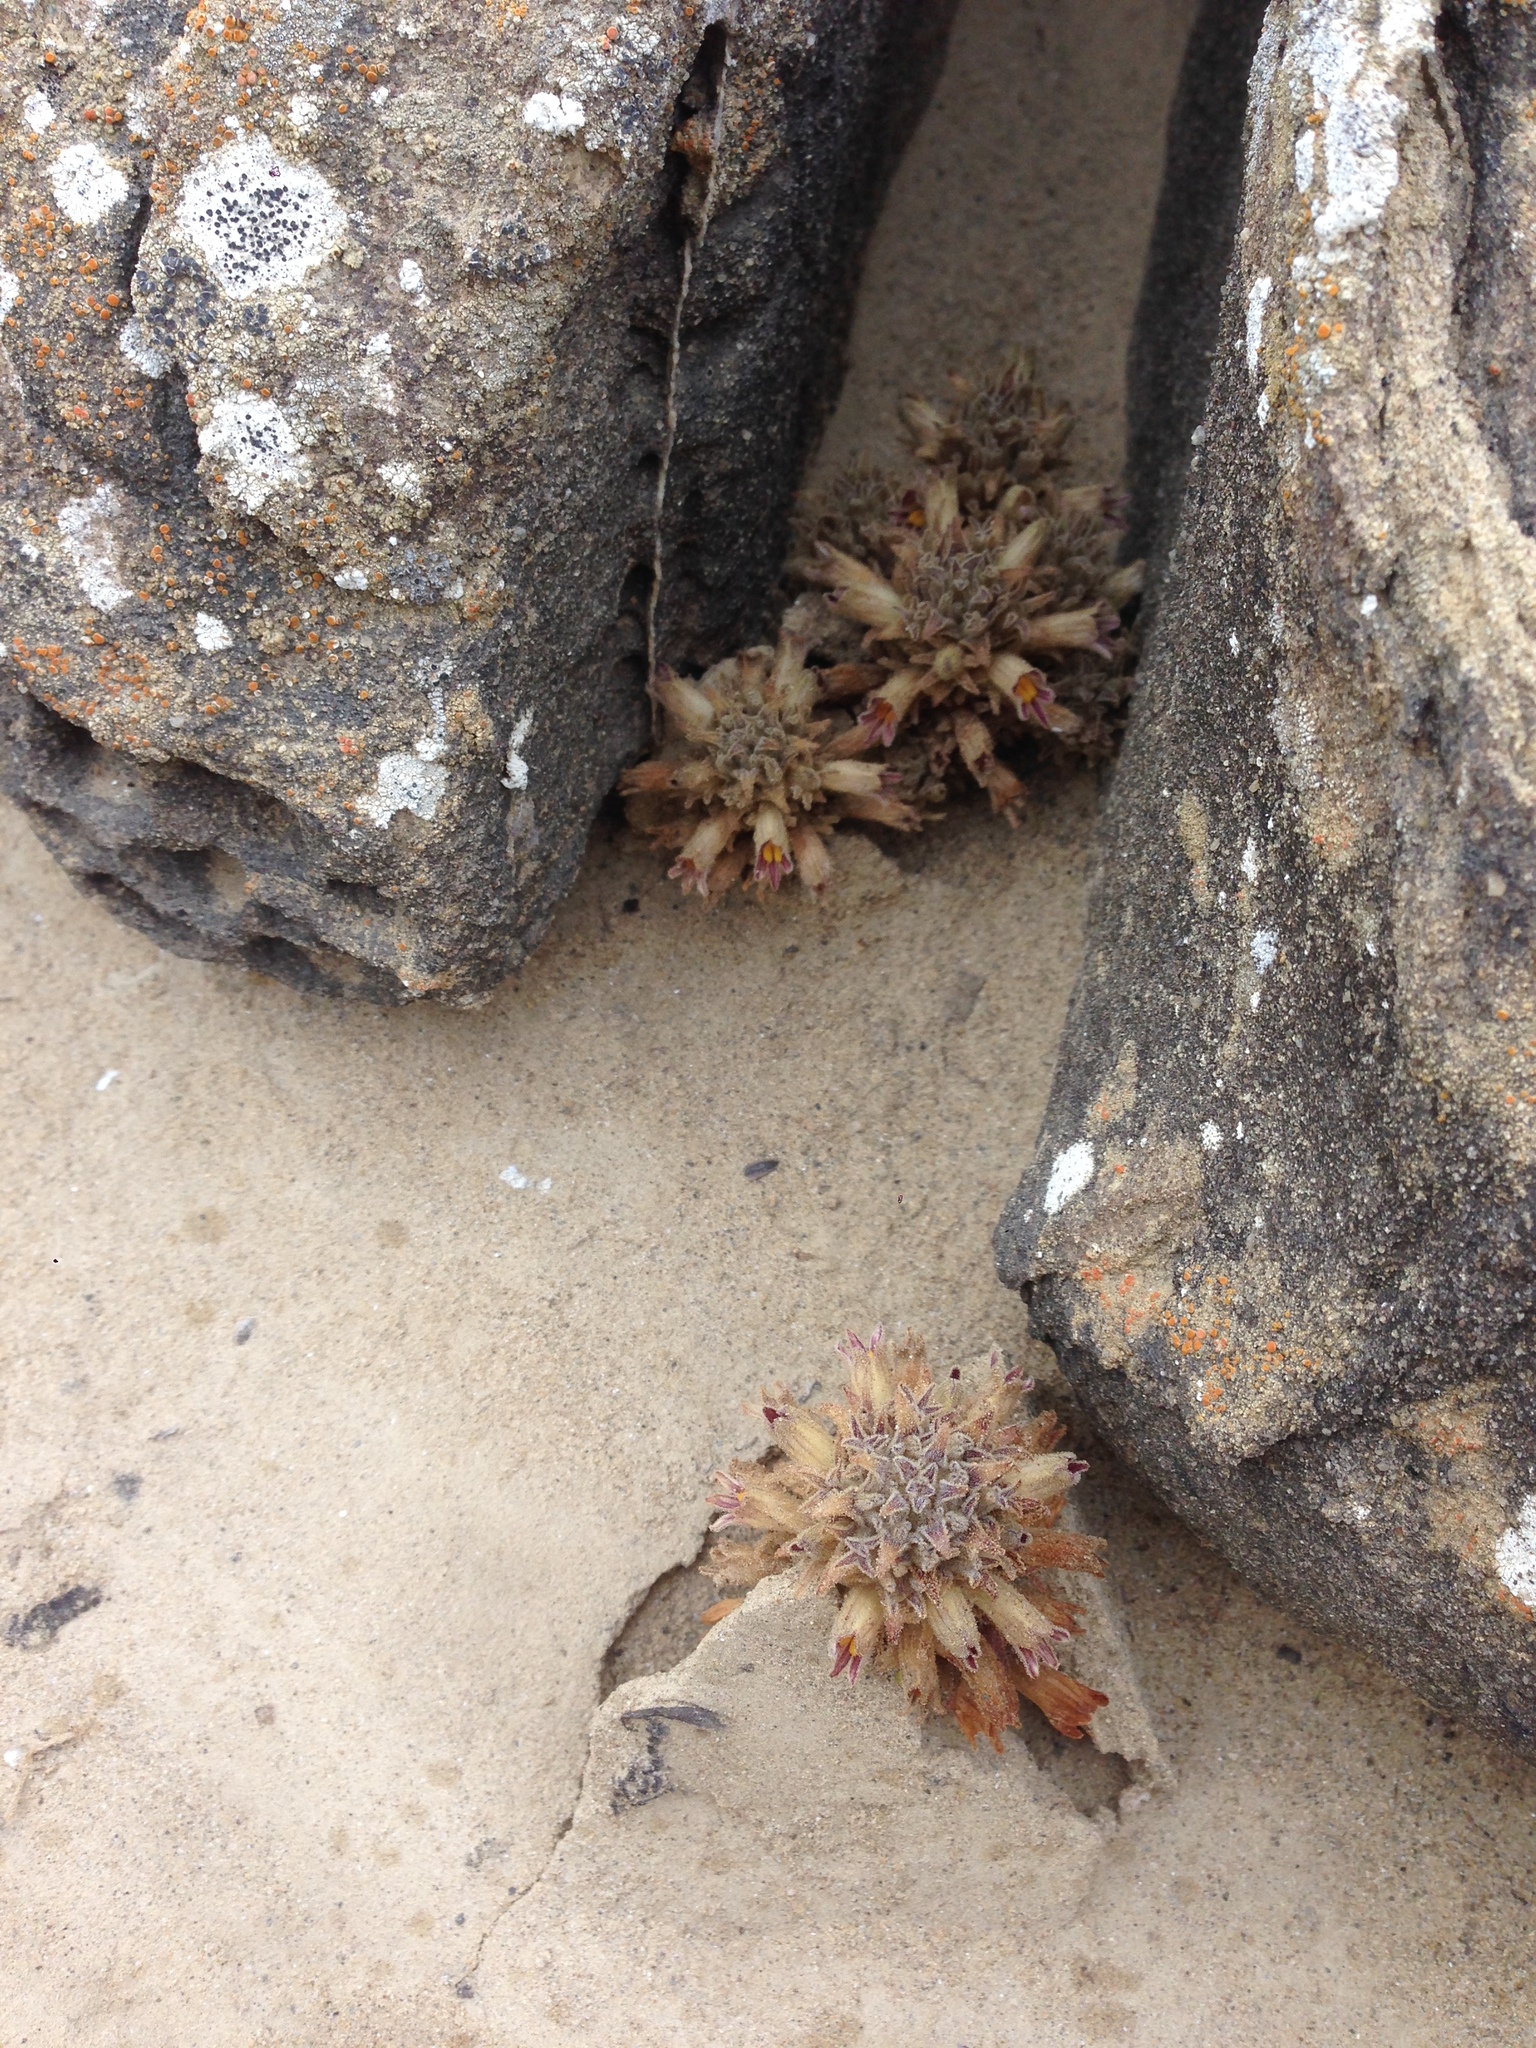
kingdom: Plantae
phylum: Tracheophyta
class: Magnoliopsida
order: Lamiales
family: Orobanchaceae
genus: Aphyllon
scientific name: Aphyllon parishii
